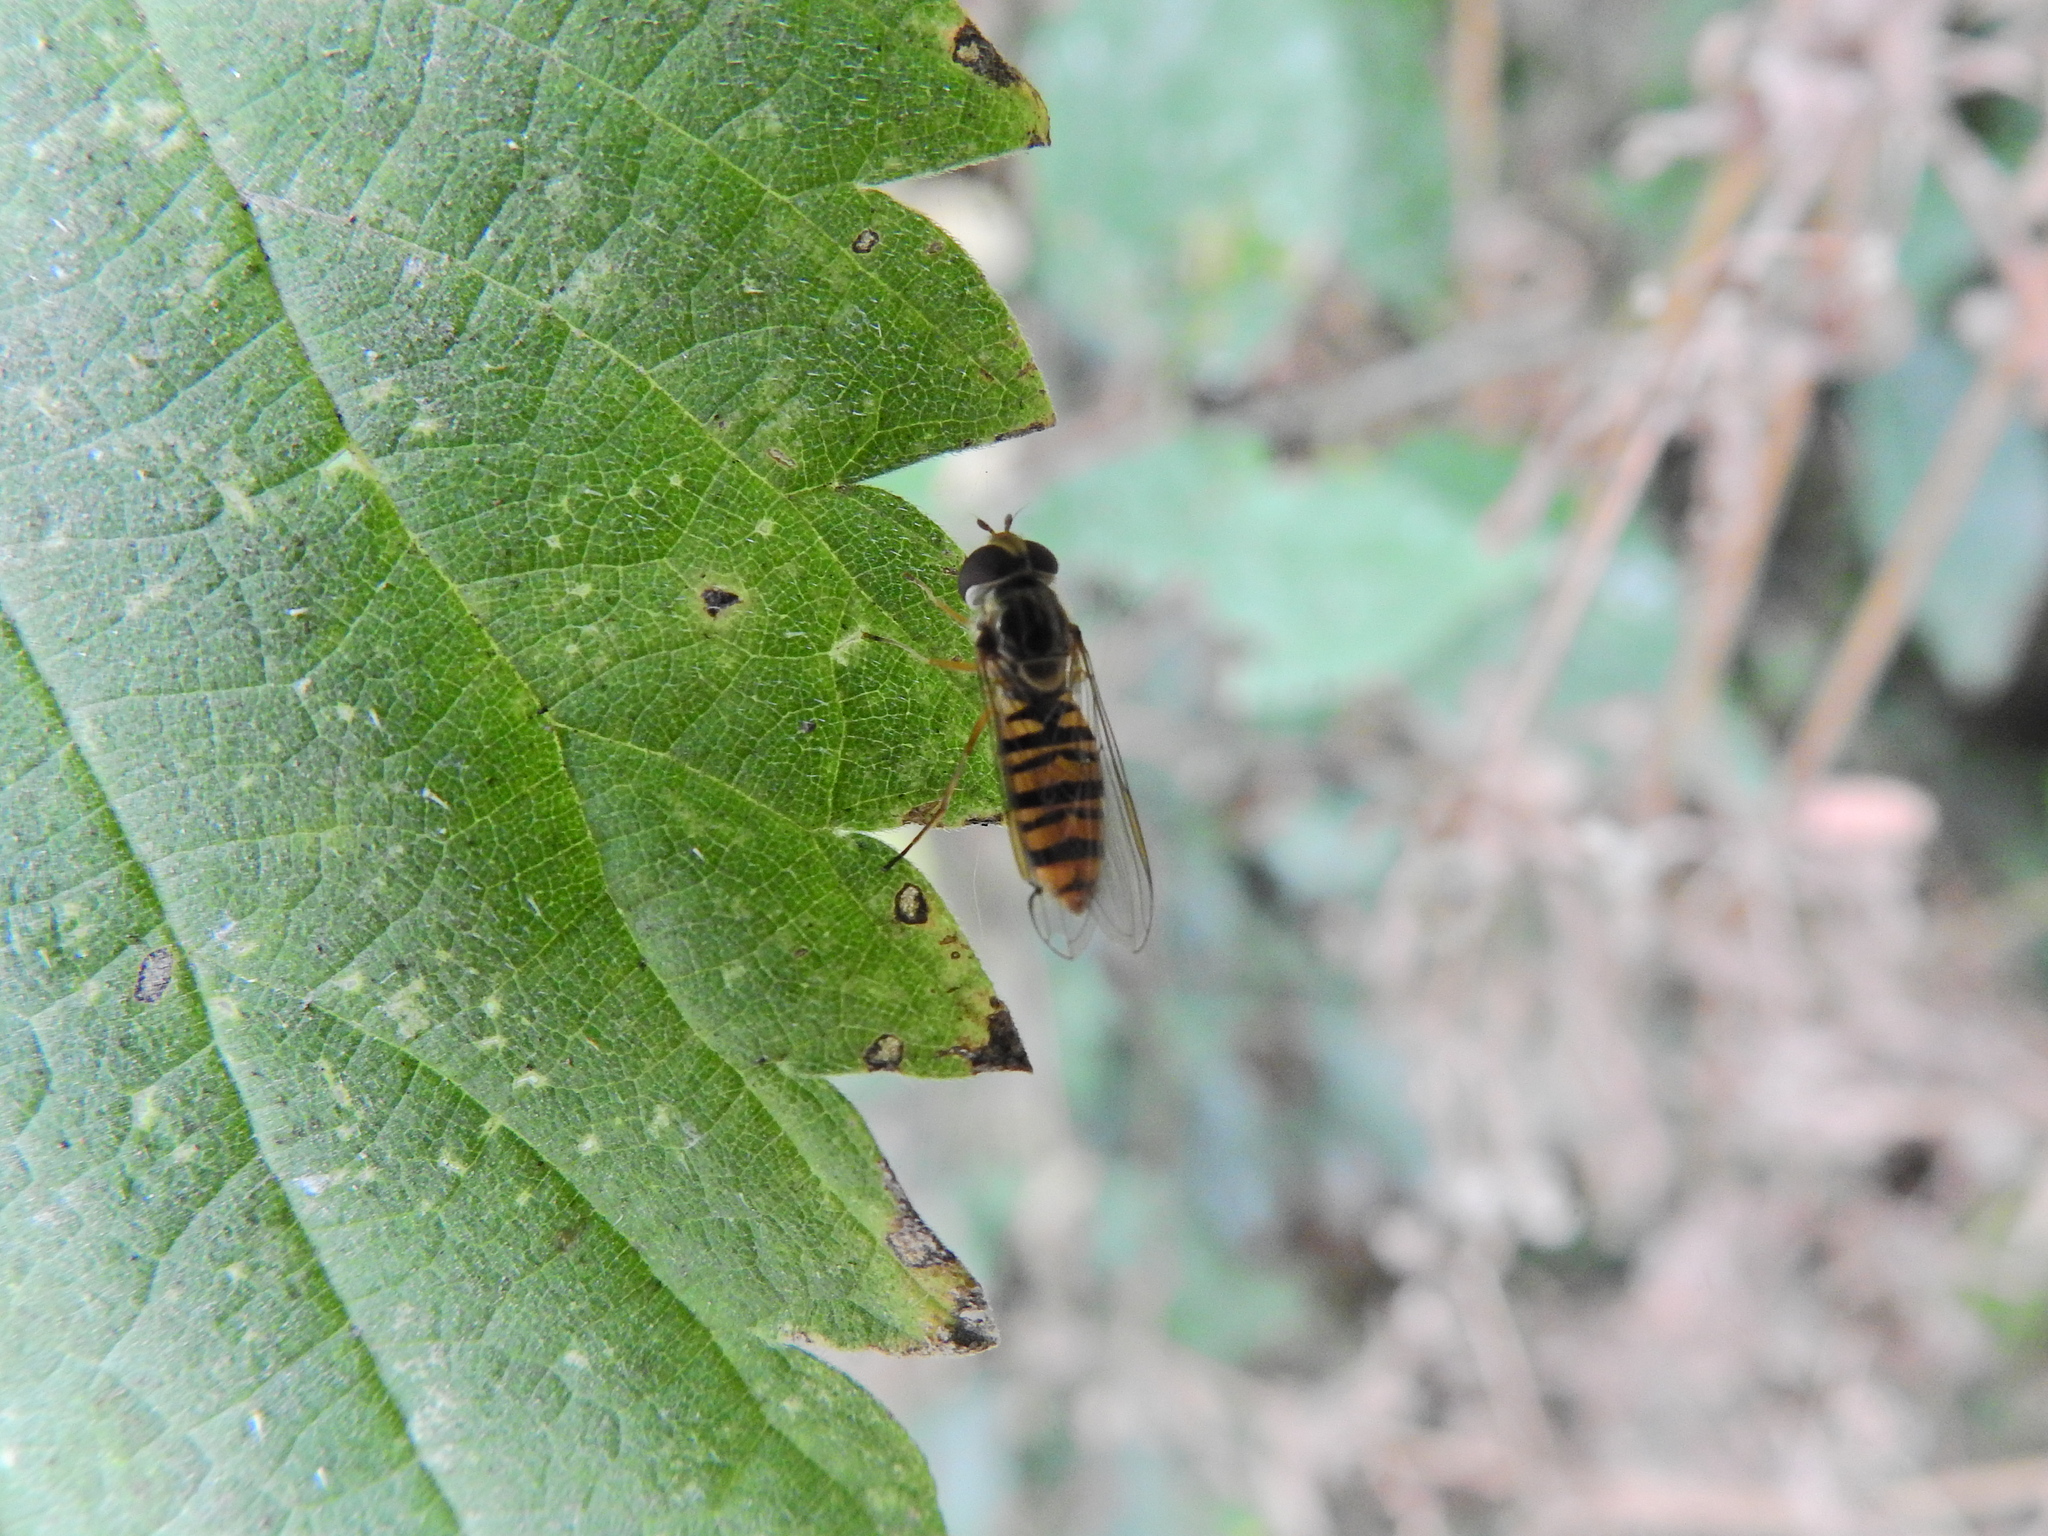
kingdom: Animalia
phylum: Arthropoda
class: Insecta
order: Diptera
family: Syrphidae
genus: Episyrphus
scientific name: Episyrphus balteatus
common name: Marmalade hoverfly
